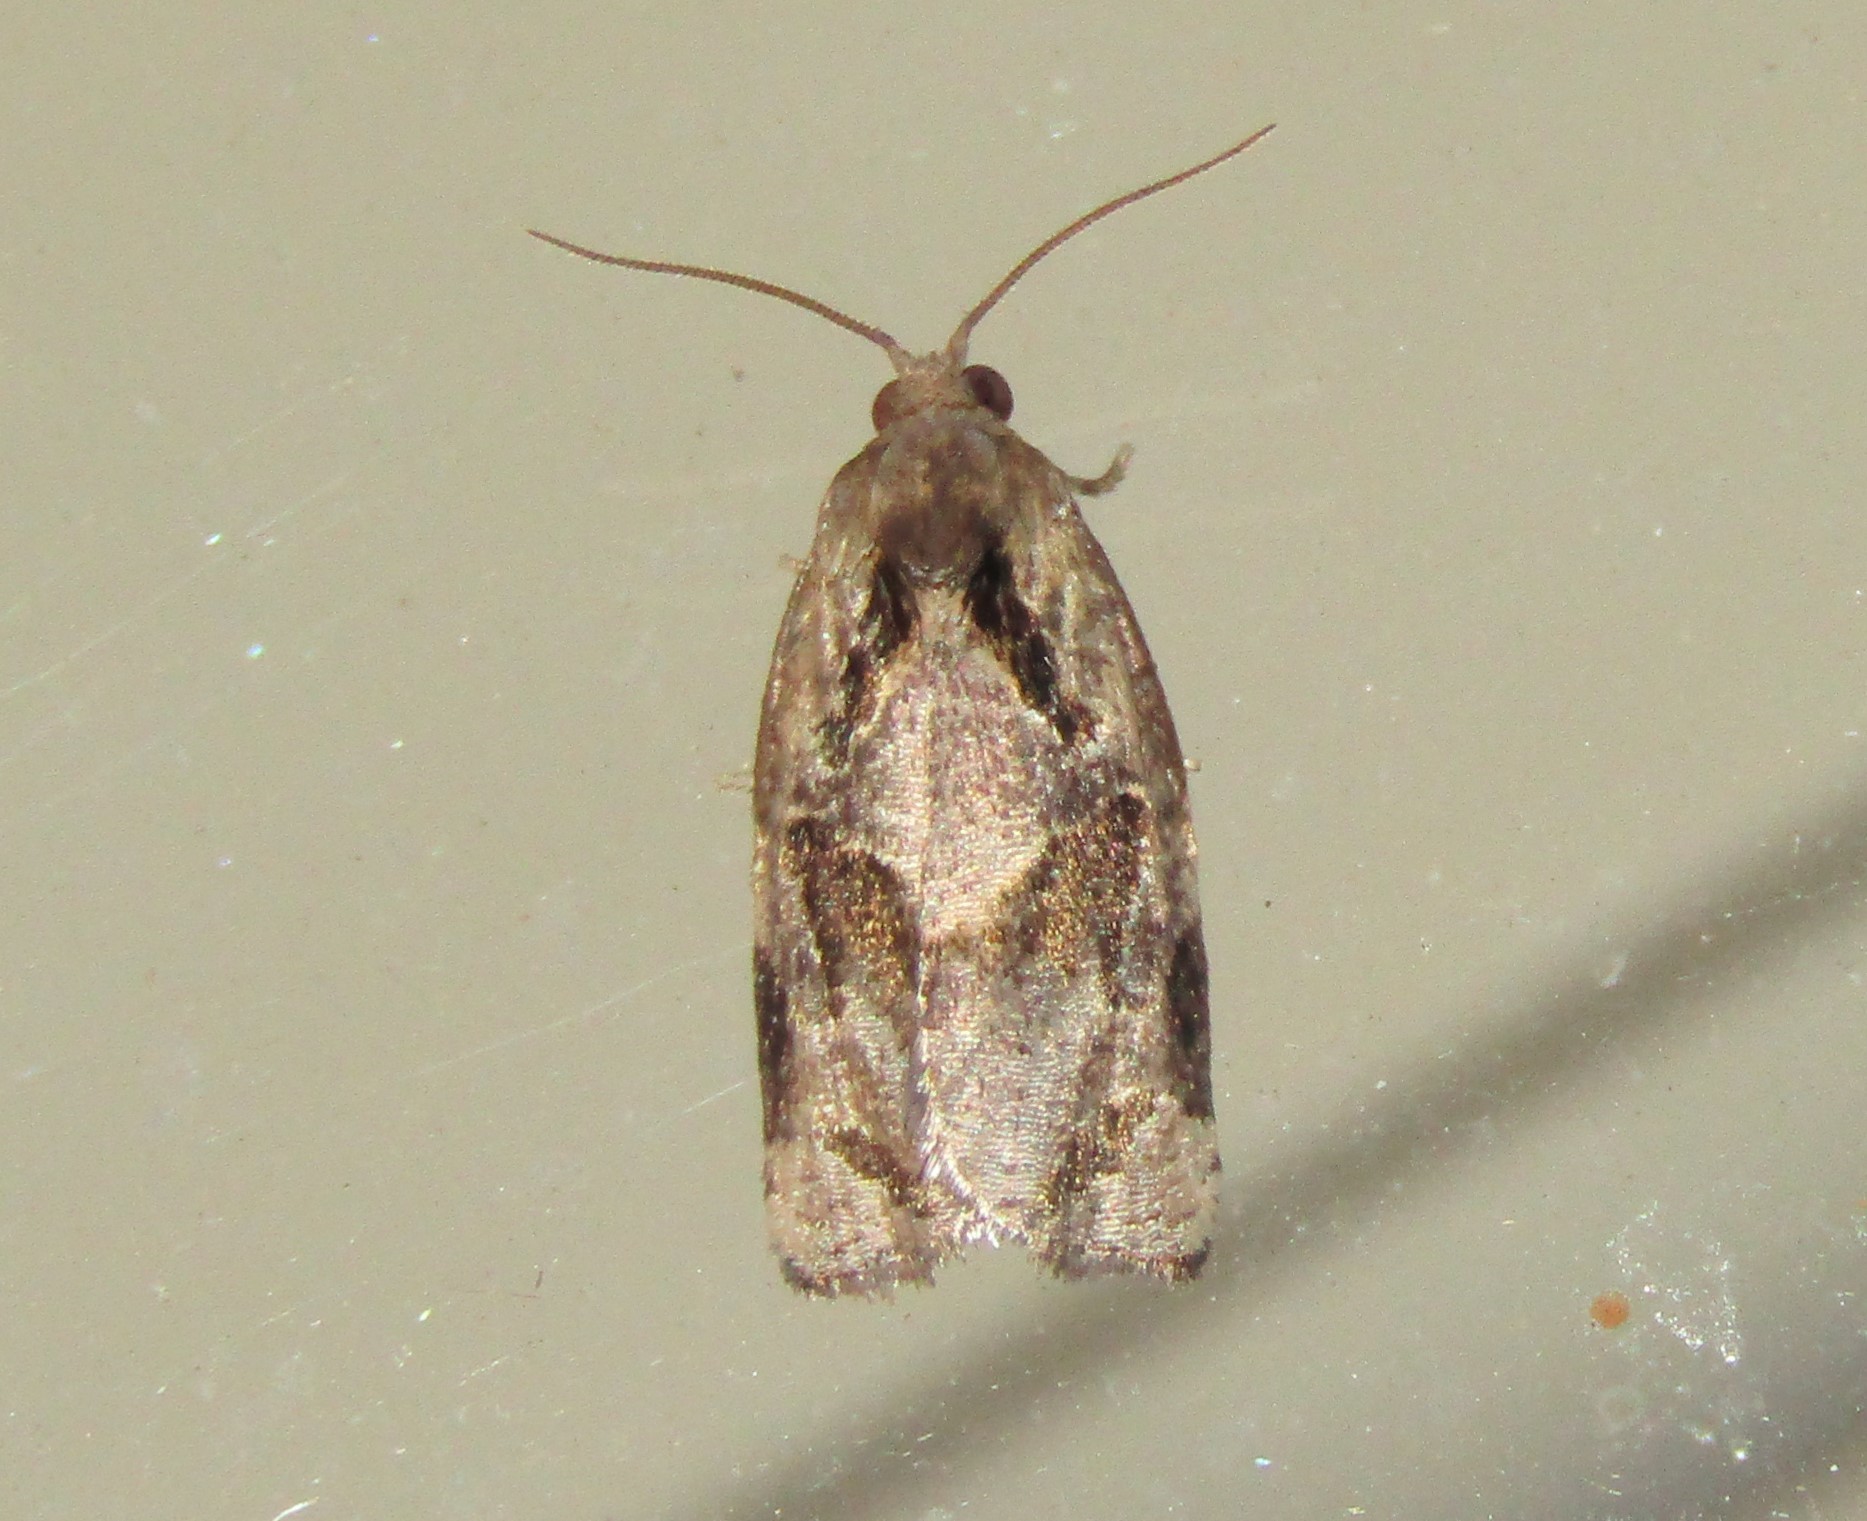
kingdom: Animalia
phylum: Arthropoda
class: Insecta
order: Lepidoptera
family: Tortricidae
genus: Archips
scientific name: Archips grisea
